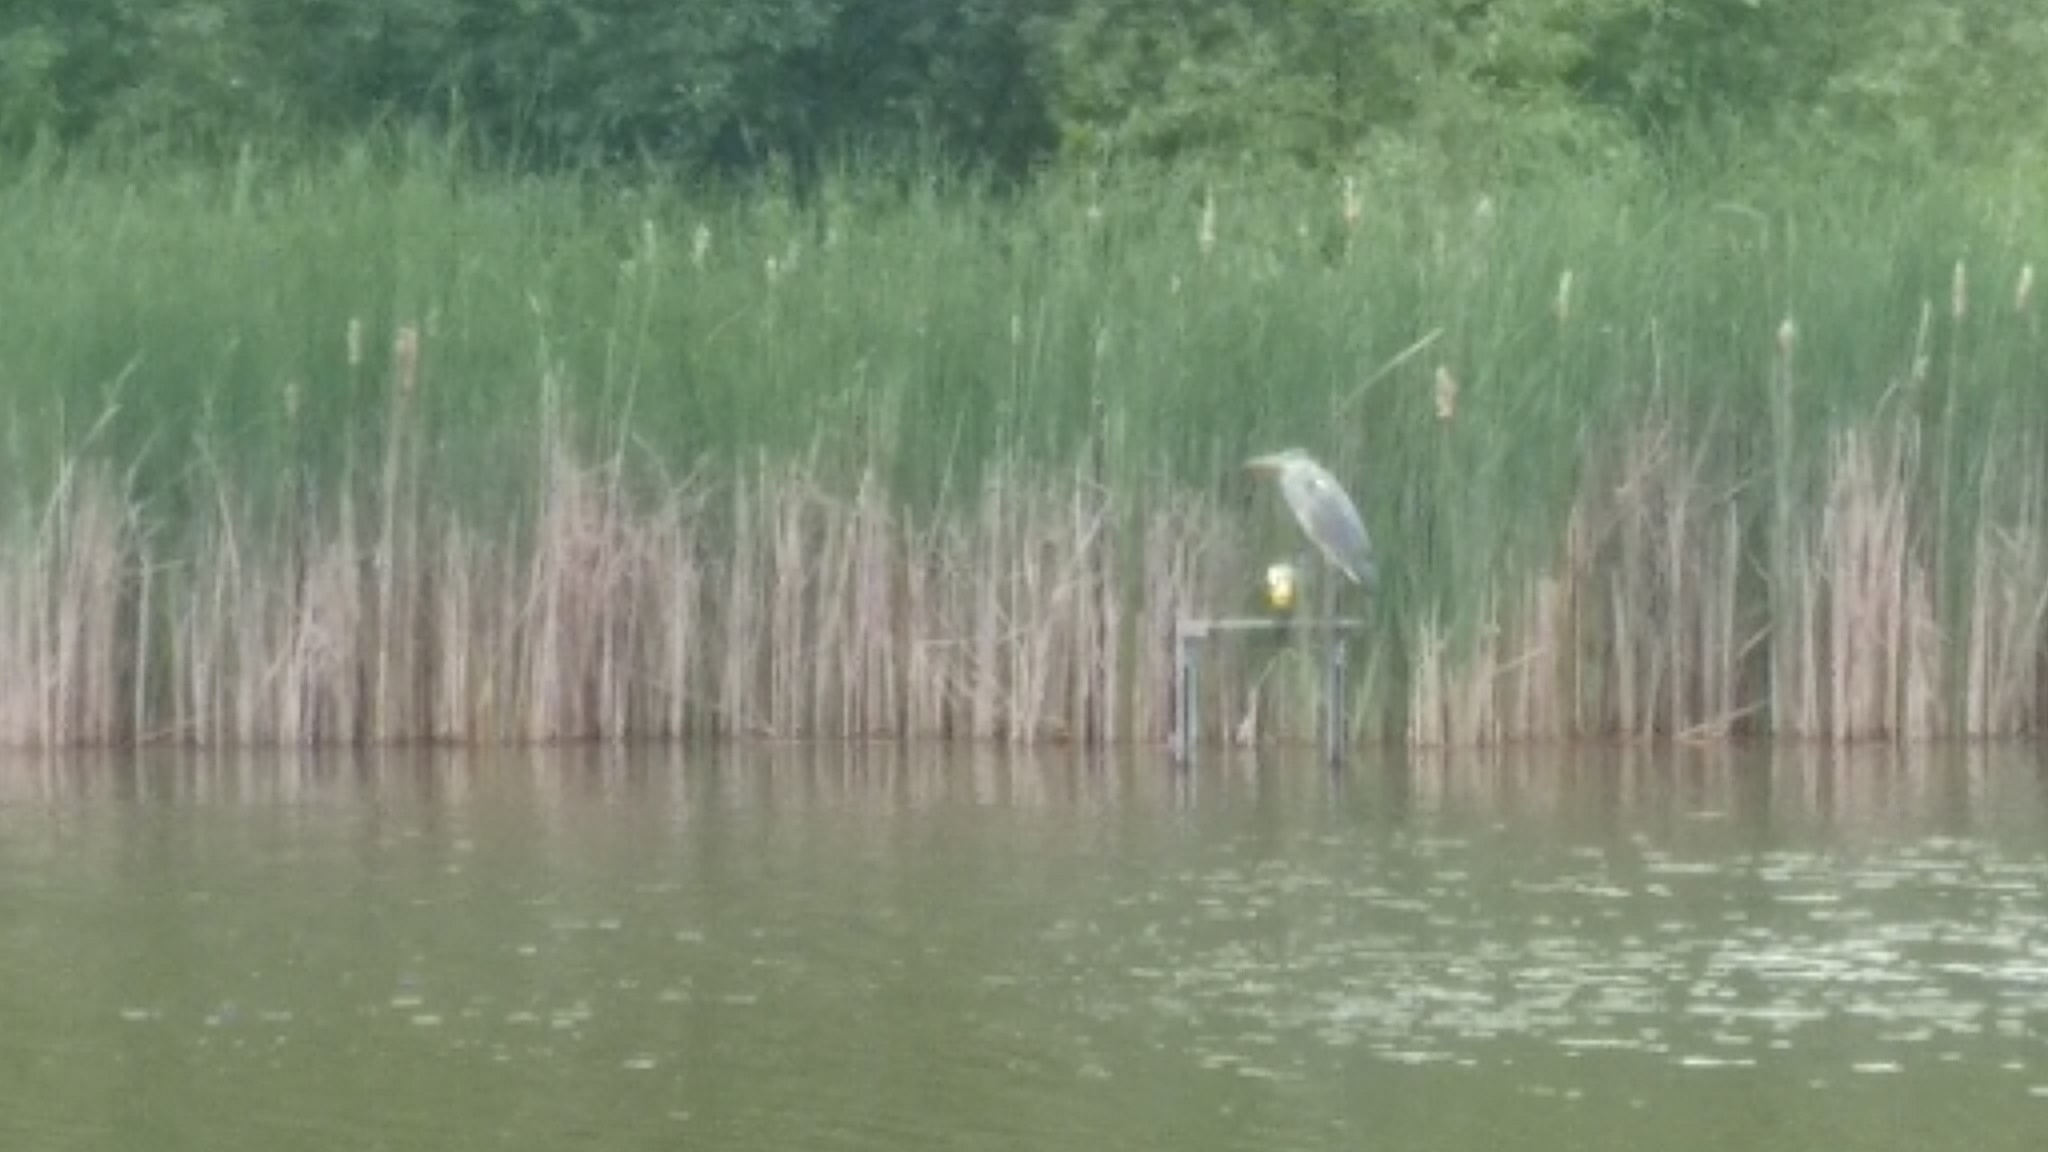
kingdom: Animalia
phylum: Chordata
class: Aves
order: Pelecaniformes
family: Ardeidae
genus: Ardea
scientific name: Ardea cinerea
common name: Grey heron
